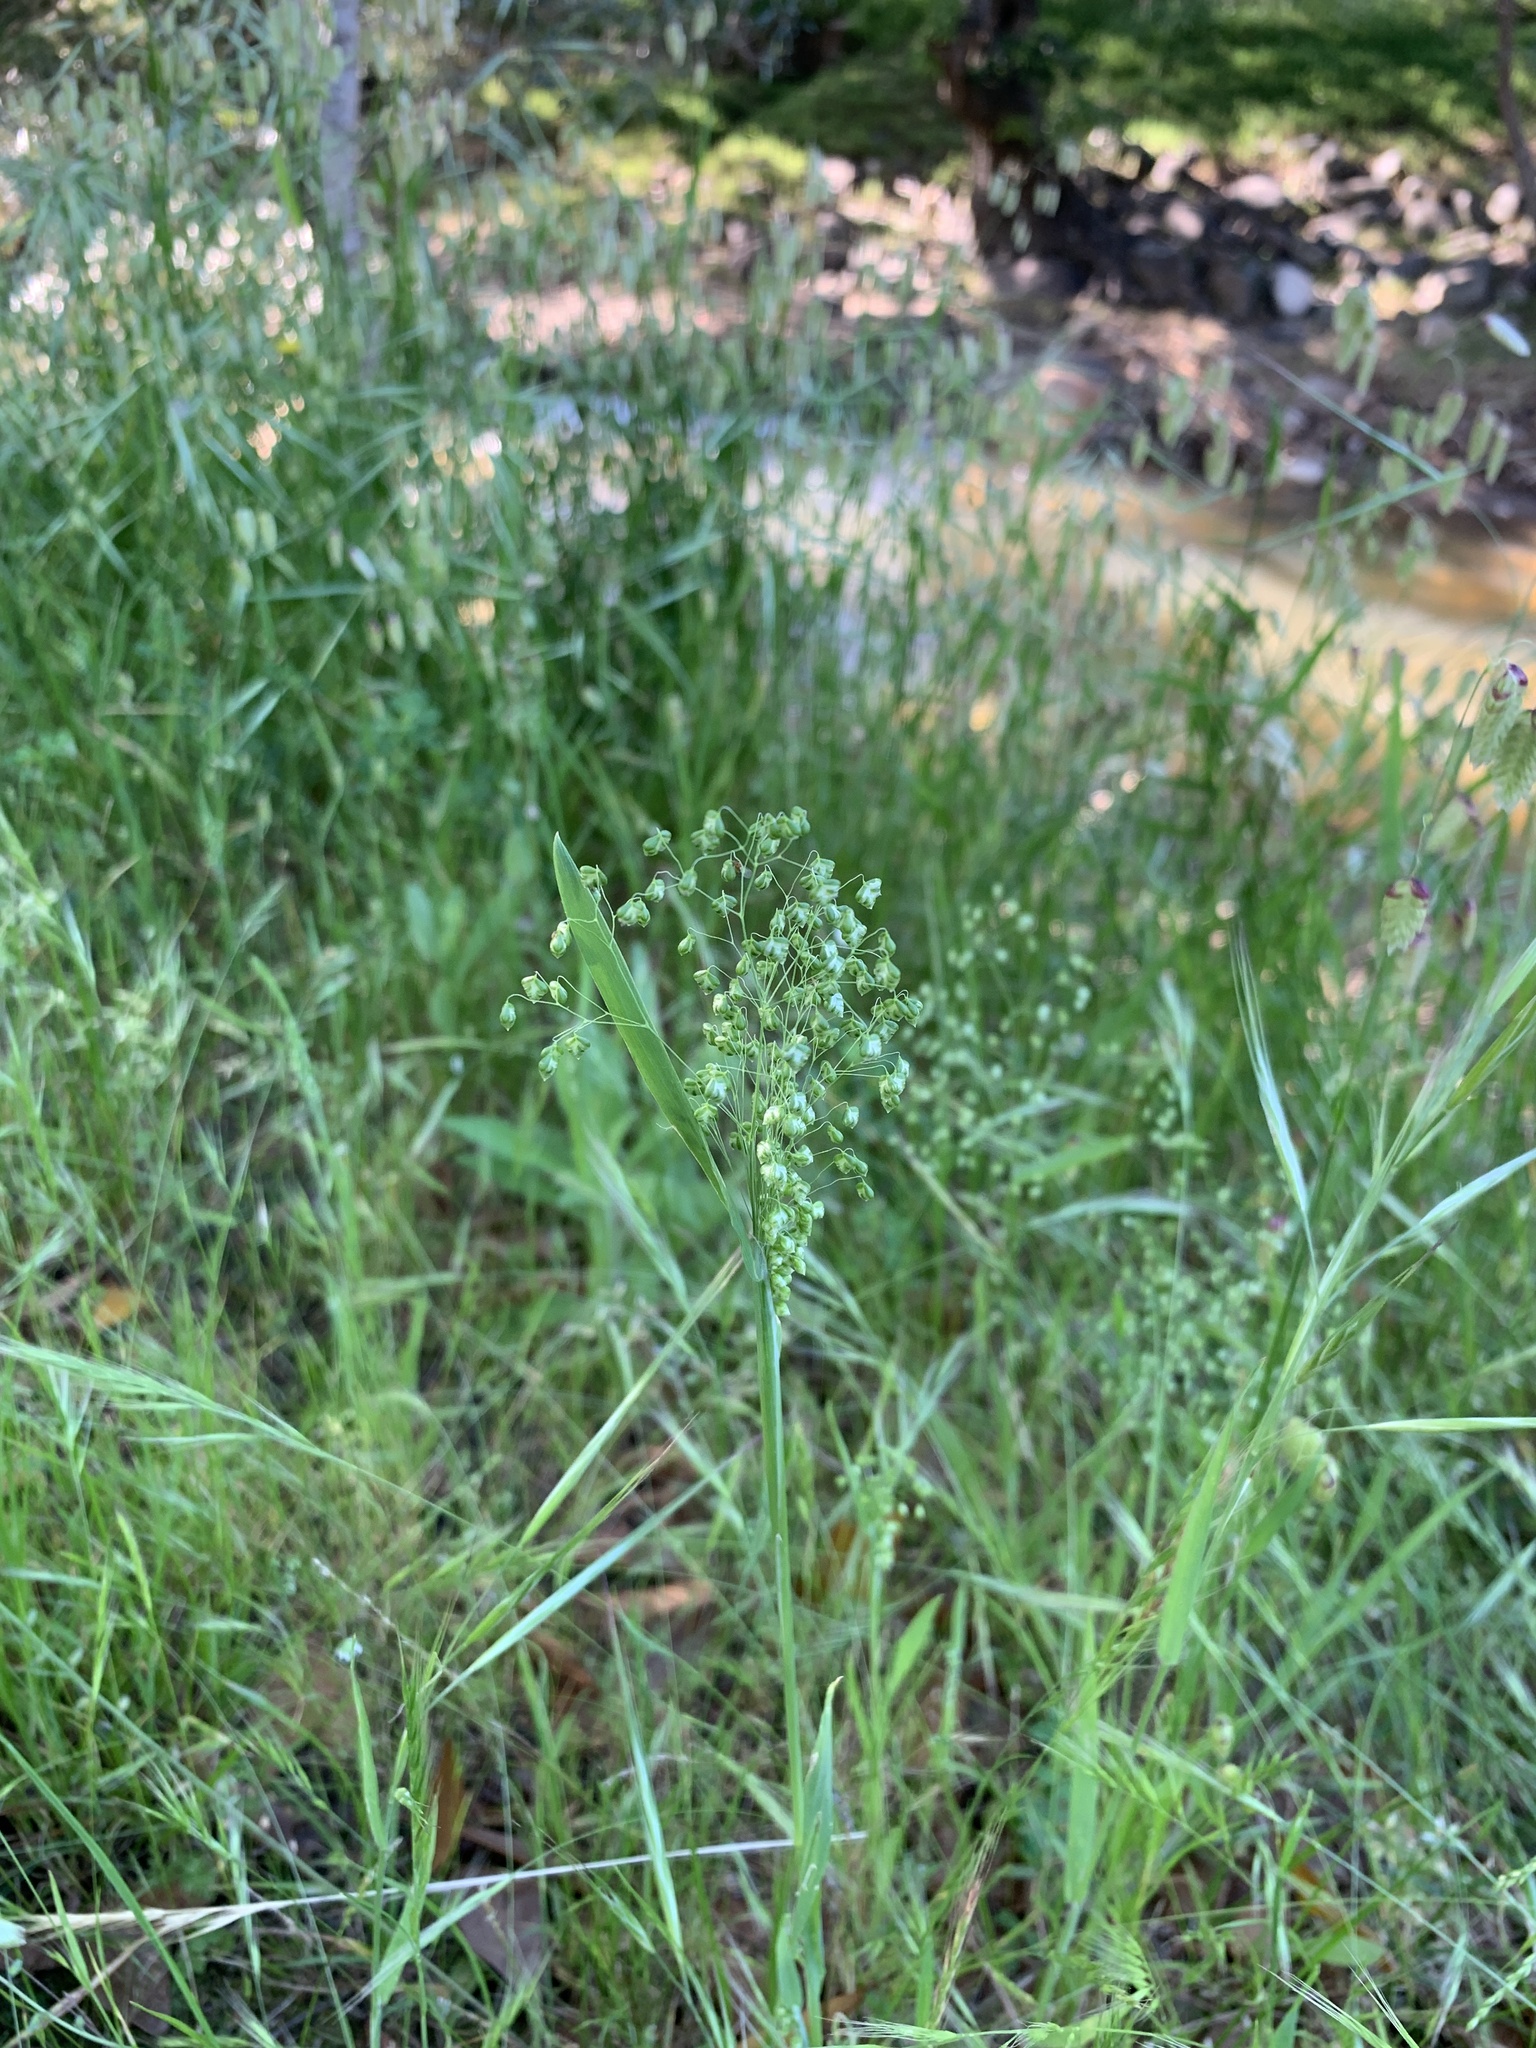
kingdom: Plantae
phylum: Tracheophyta
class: Liliopsida
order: Poales
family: Poaceae
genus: Briza
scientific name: Briza minor
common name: Lesser quaking-grass
